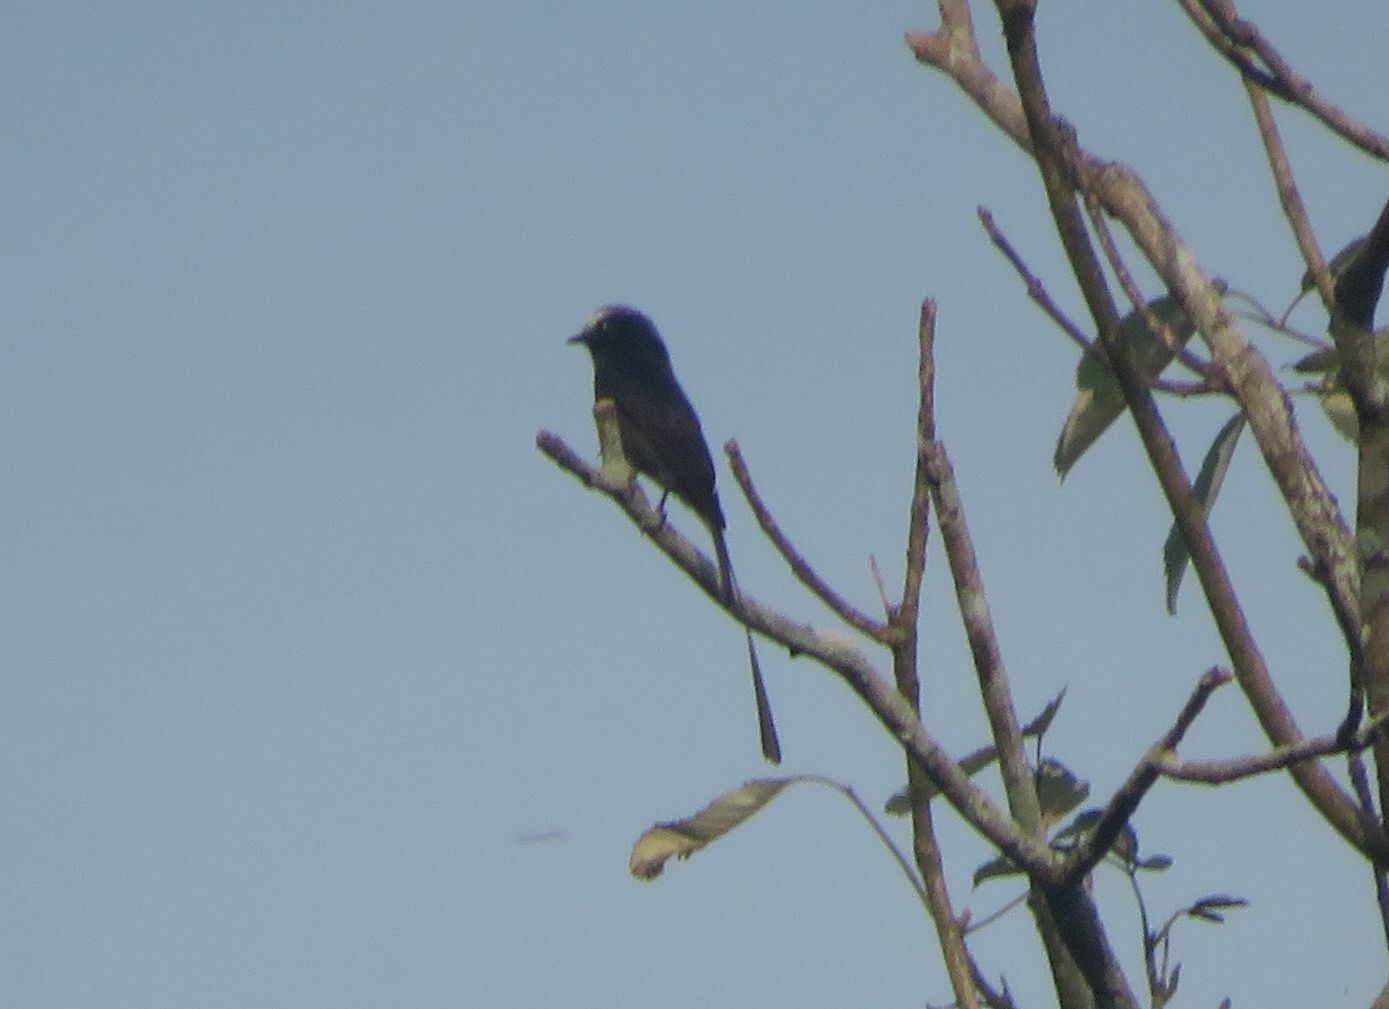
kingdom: Animalia
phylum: Chordata
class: Aves
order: Passeriformes
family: Tyrannidae
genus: Colonia
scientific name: Colonia colonus
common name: Long-tailed tyrant
